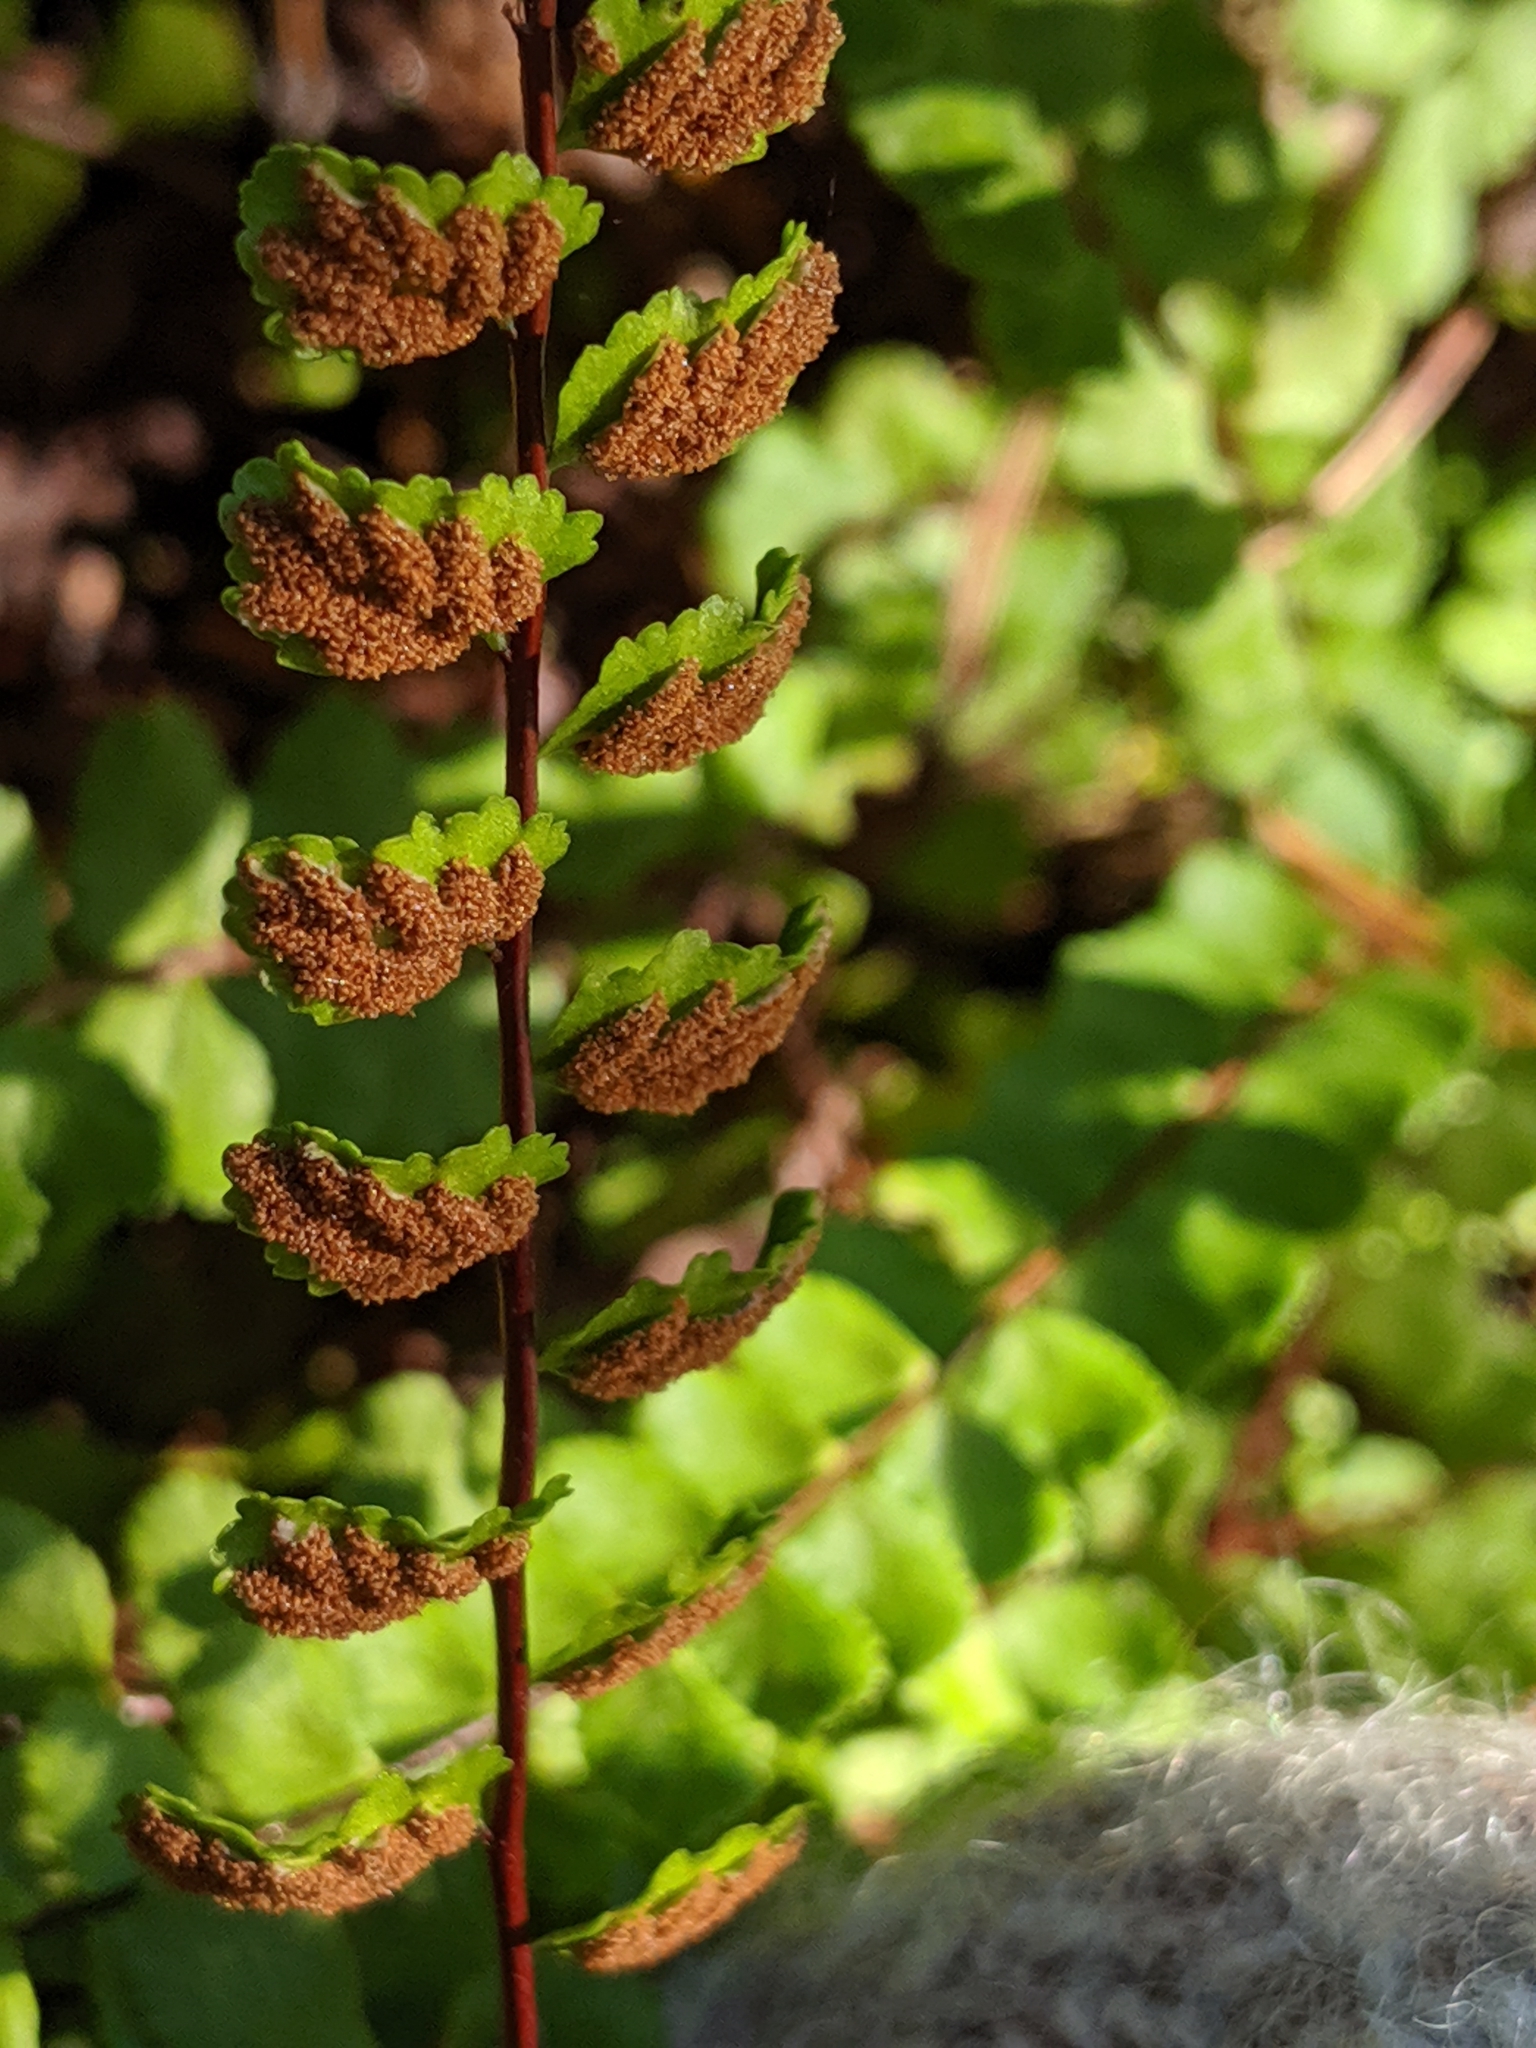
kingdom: Plantae
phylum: Tracheophyta
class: Polypodiopsida
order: Polypodiales
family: Aspleniaceae
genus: Asplenium
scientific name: Asplenium trichomanes
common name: Maidenhair spleenwort
